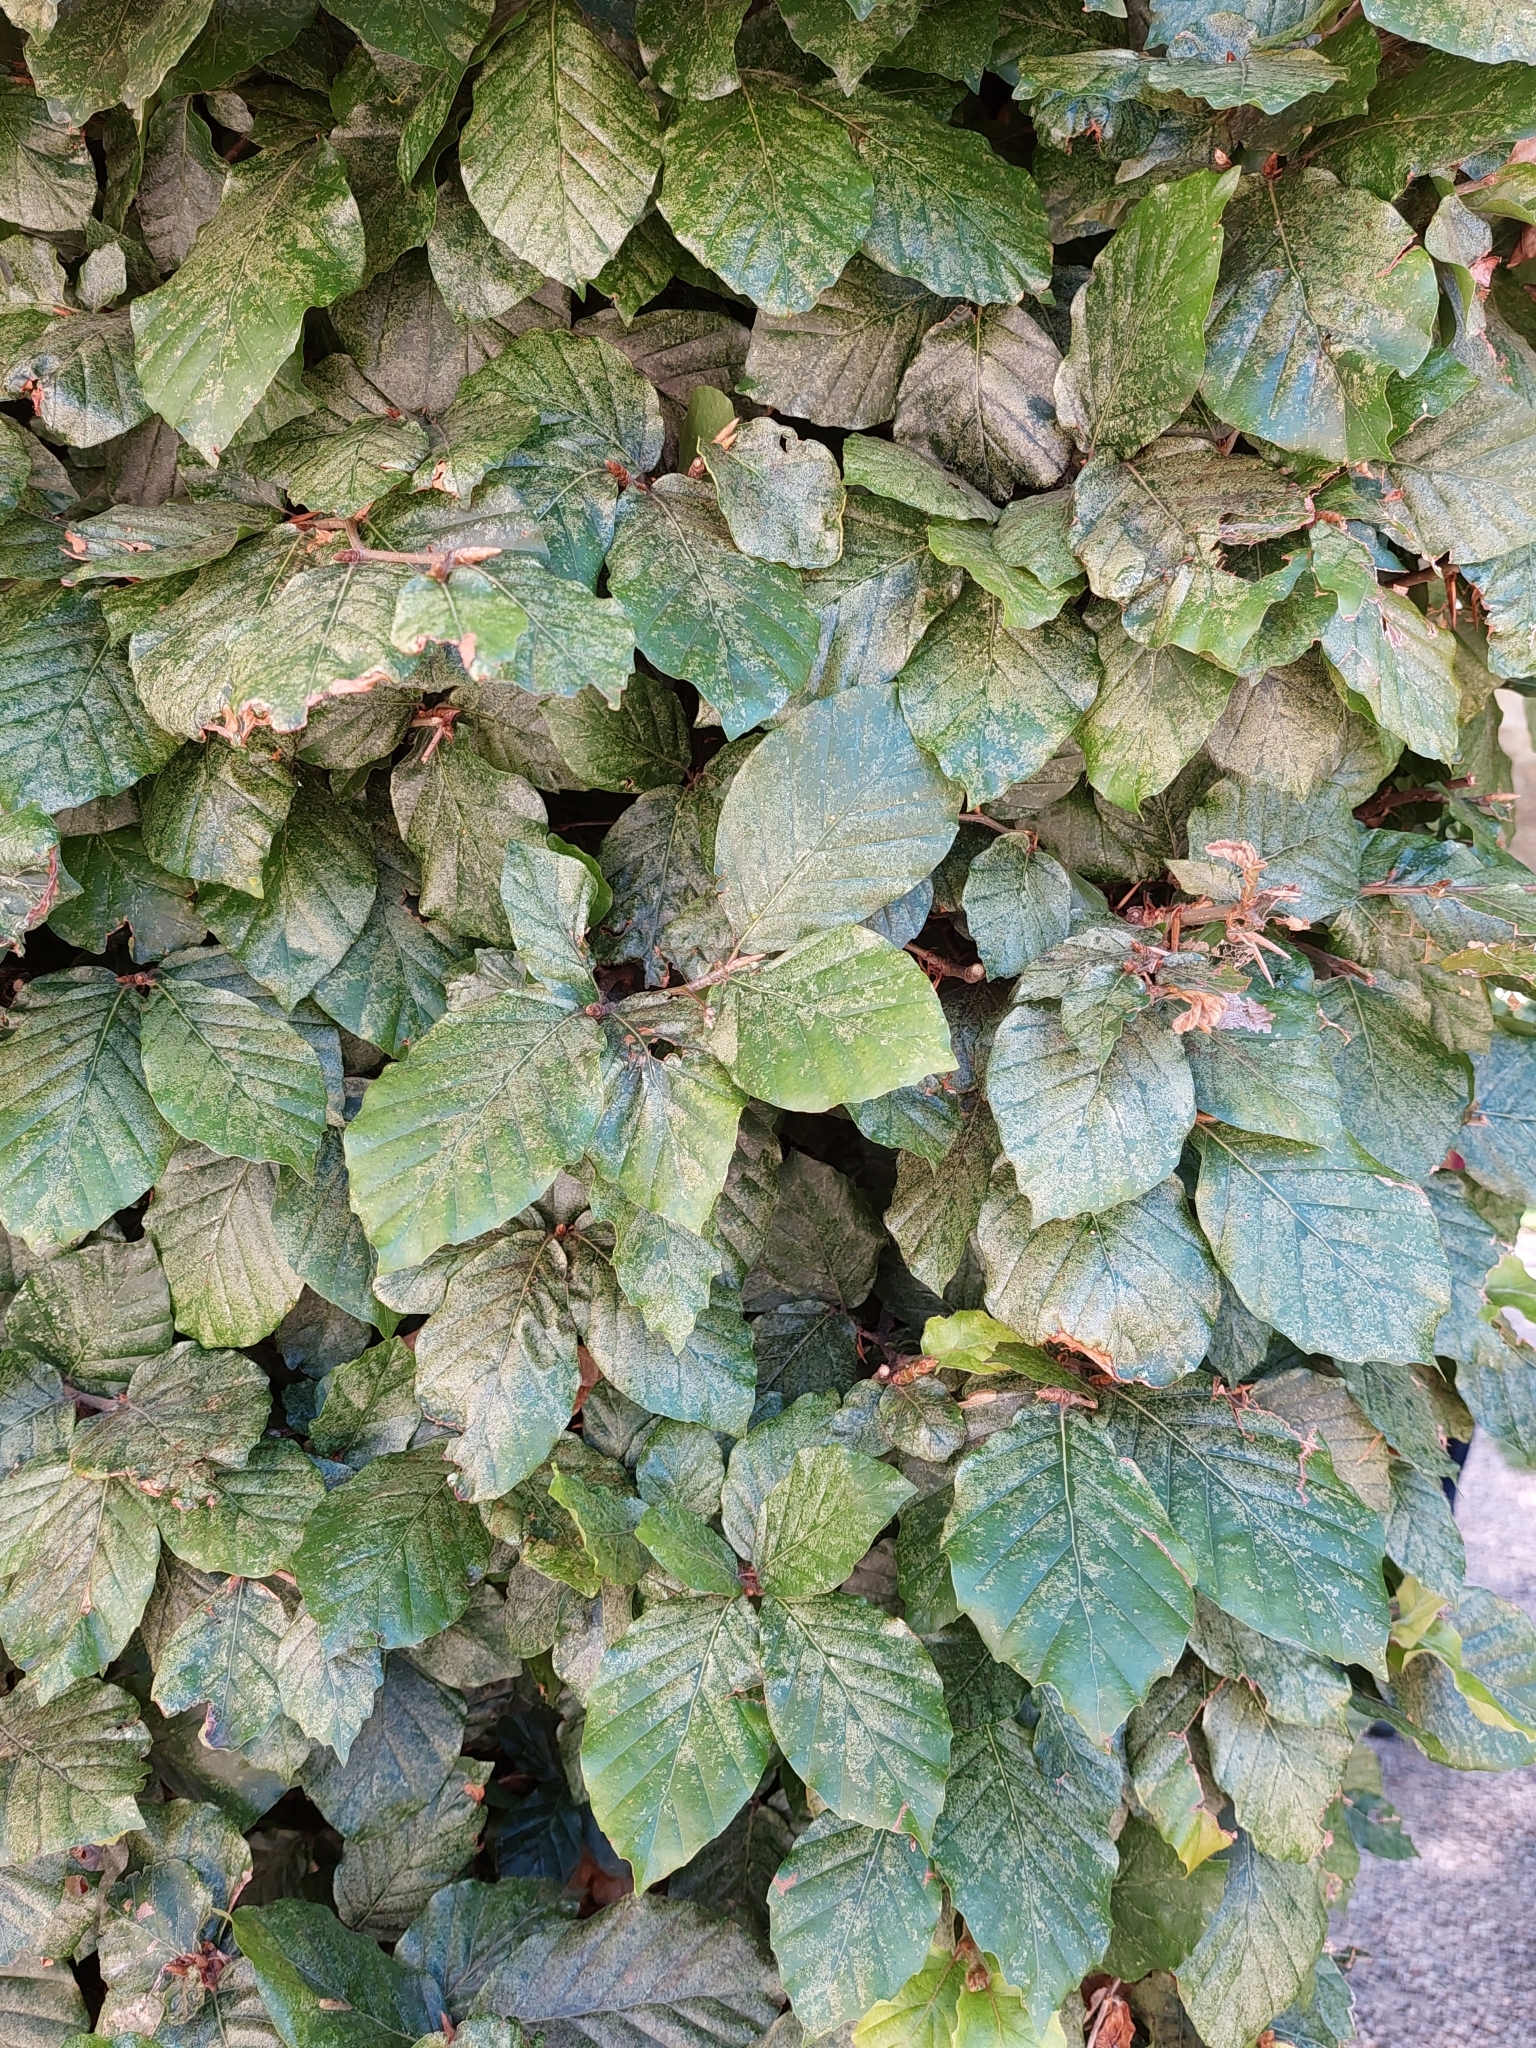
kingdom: Plantae
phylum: Tracheophyta
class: Magnoliopsida
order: Fagales
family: Fagaceae
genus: Fagus
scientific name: Fagus sylvatica
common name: Beech
